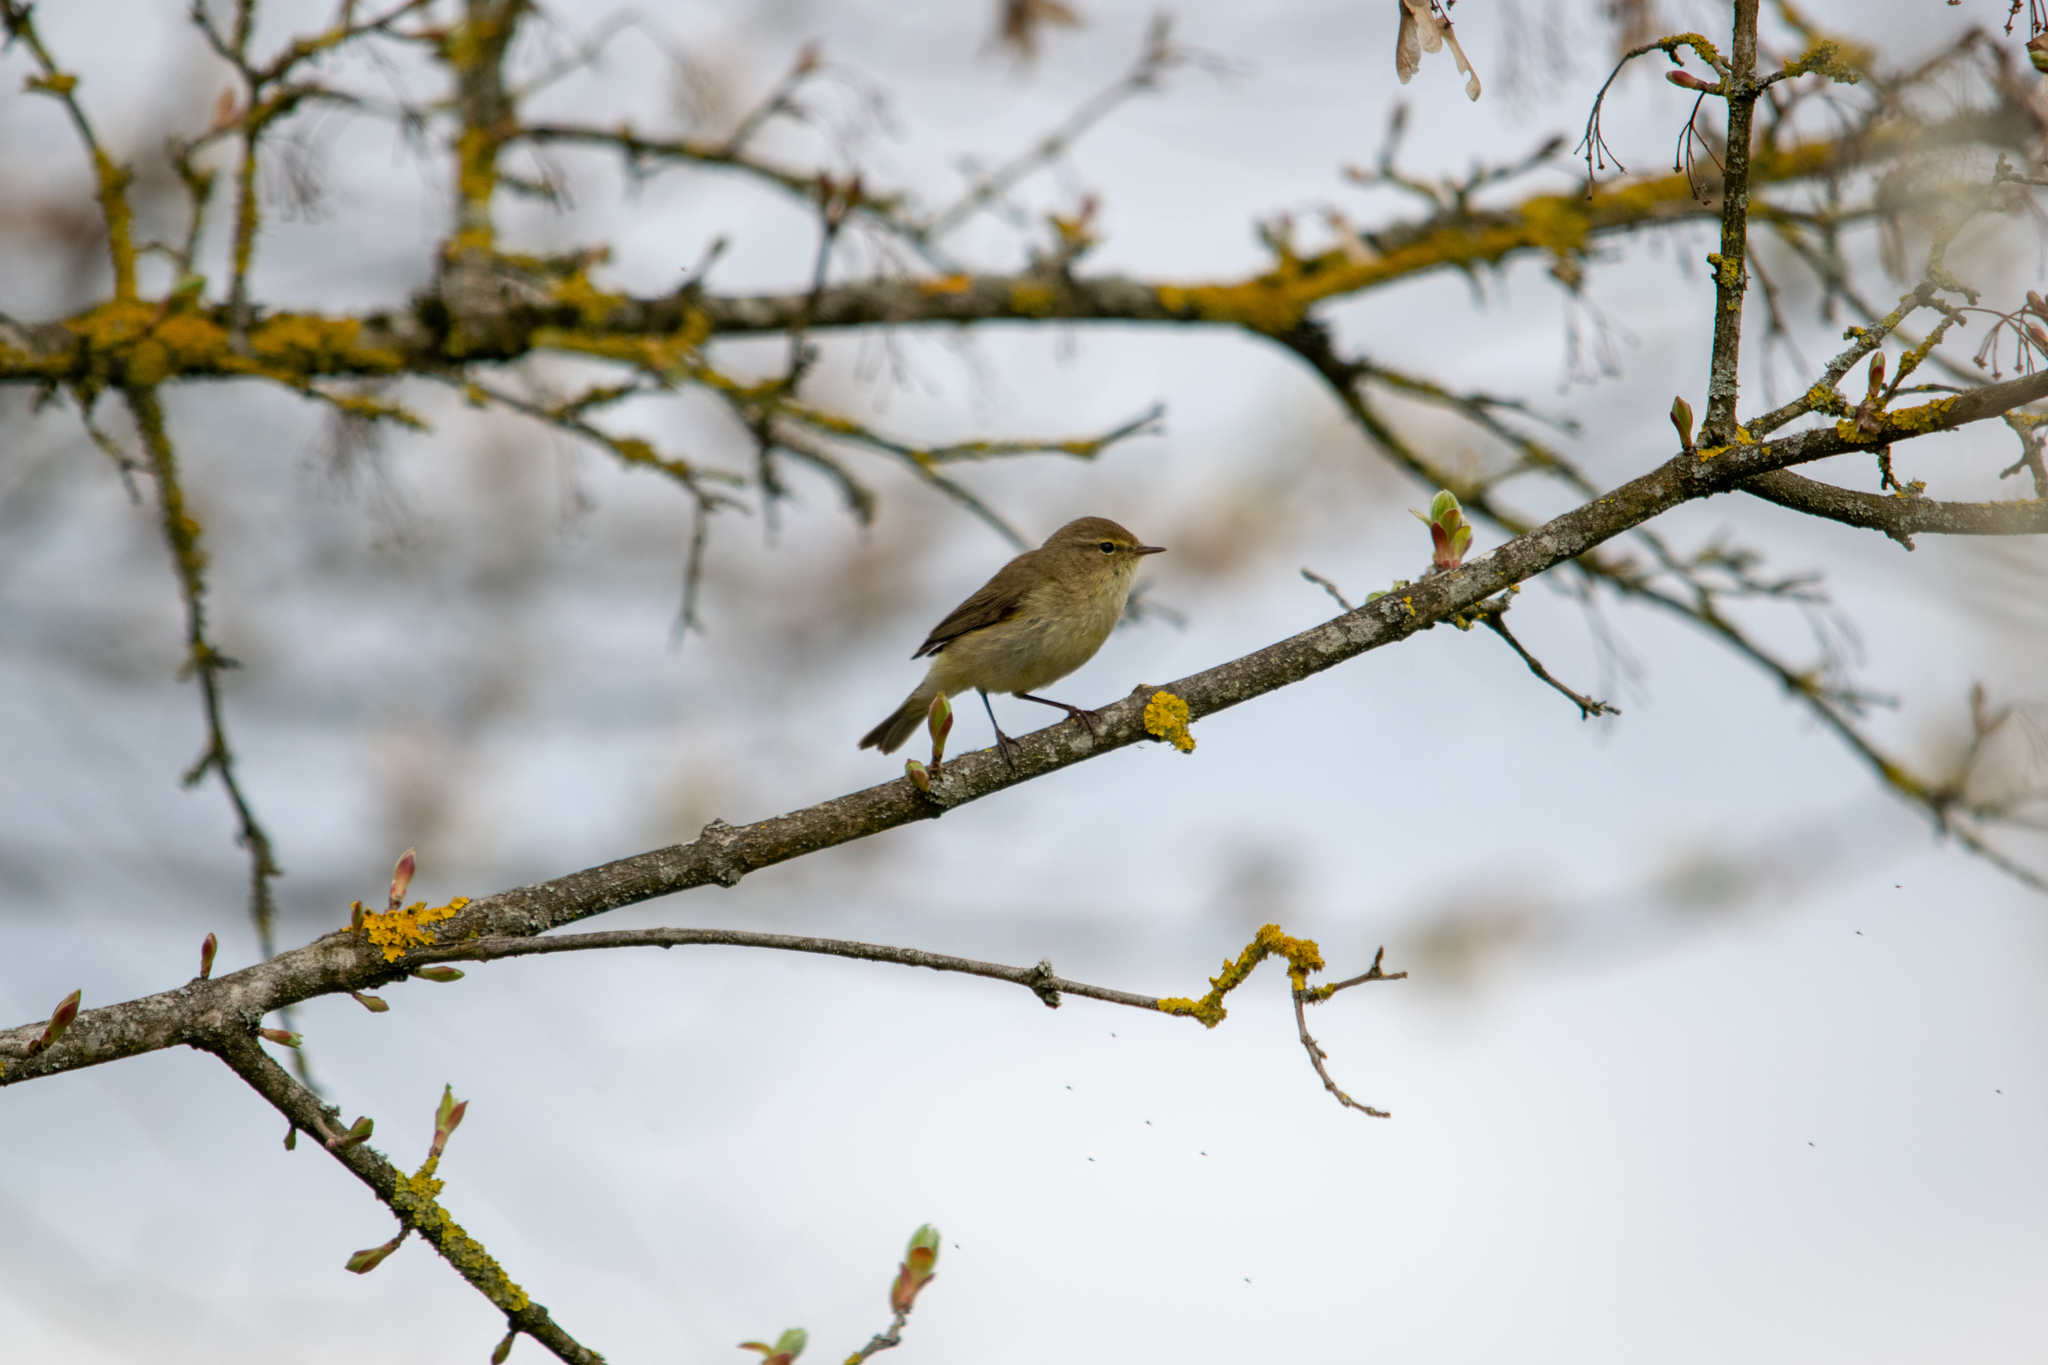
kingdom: Animalia
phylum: Chordata
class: Aves
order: Passeriformes
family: Phylloscopidae
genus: Phylloscopus
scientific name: Phylloscopus collybita
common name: Common chiffchaff
